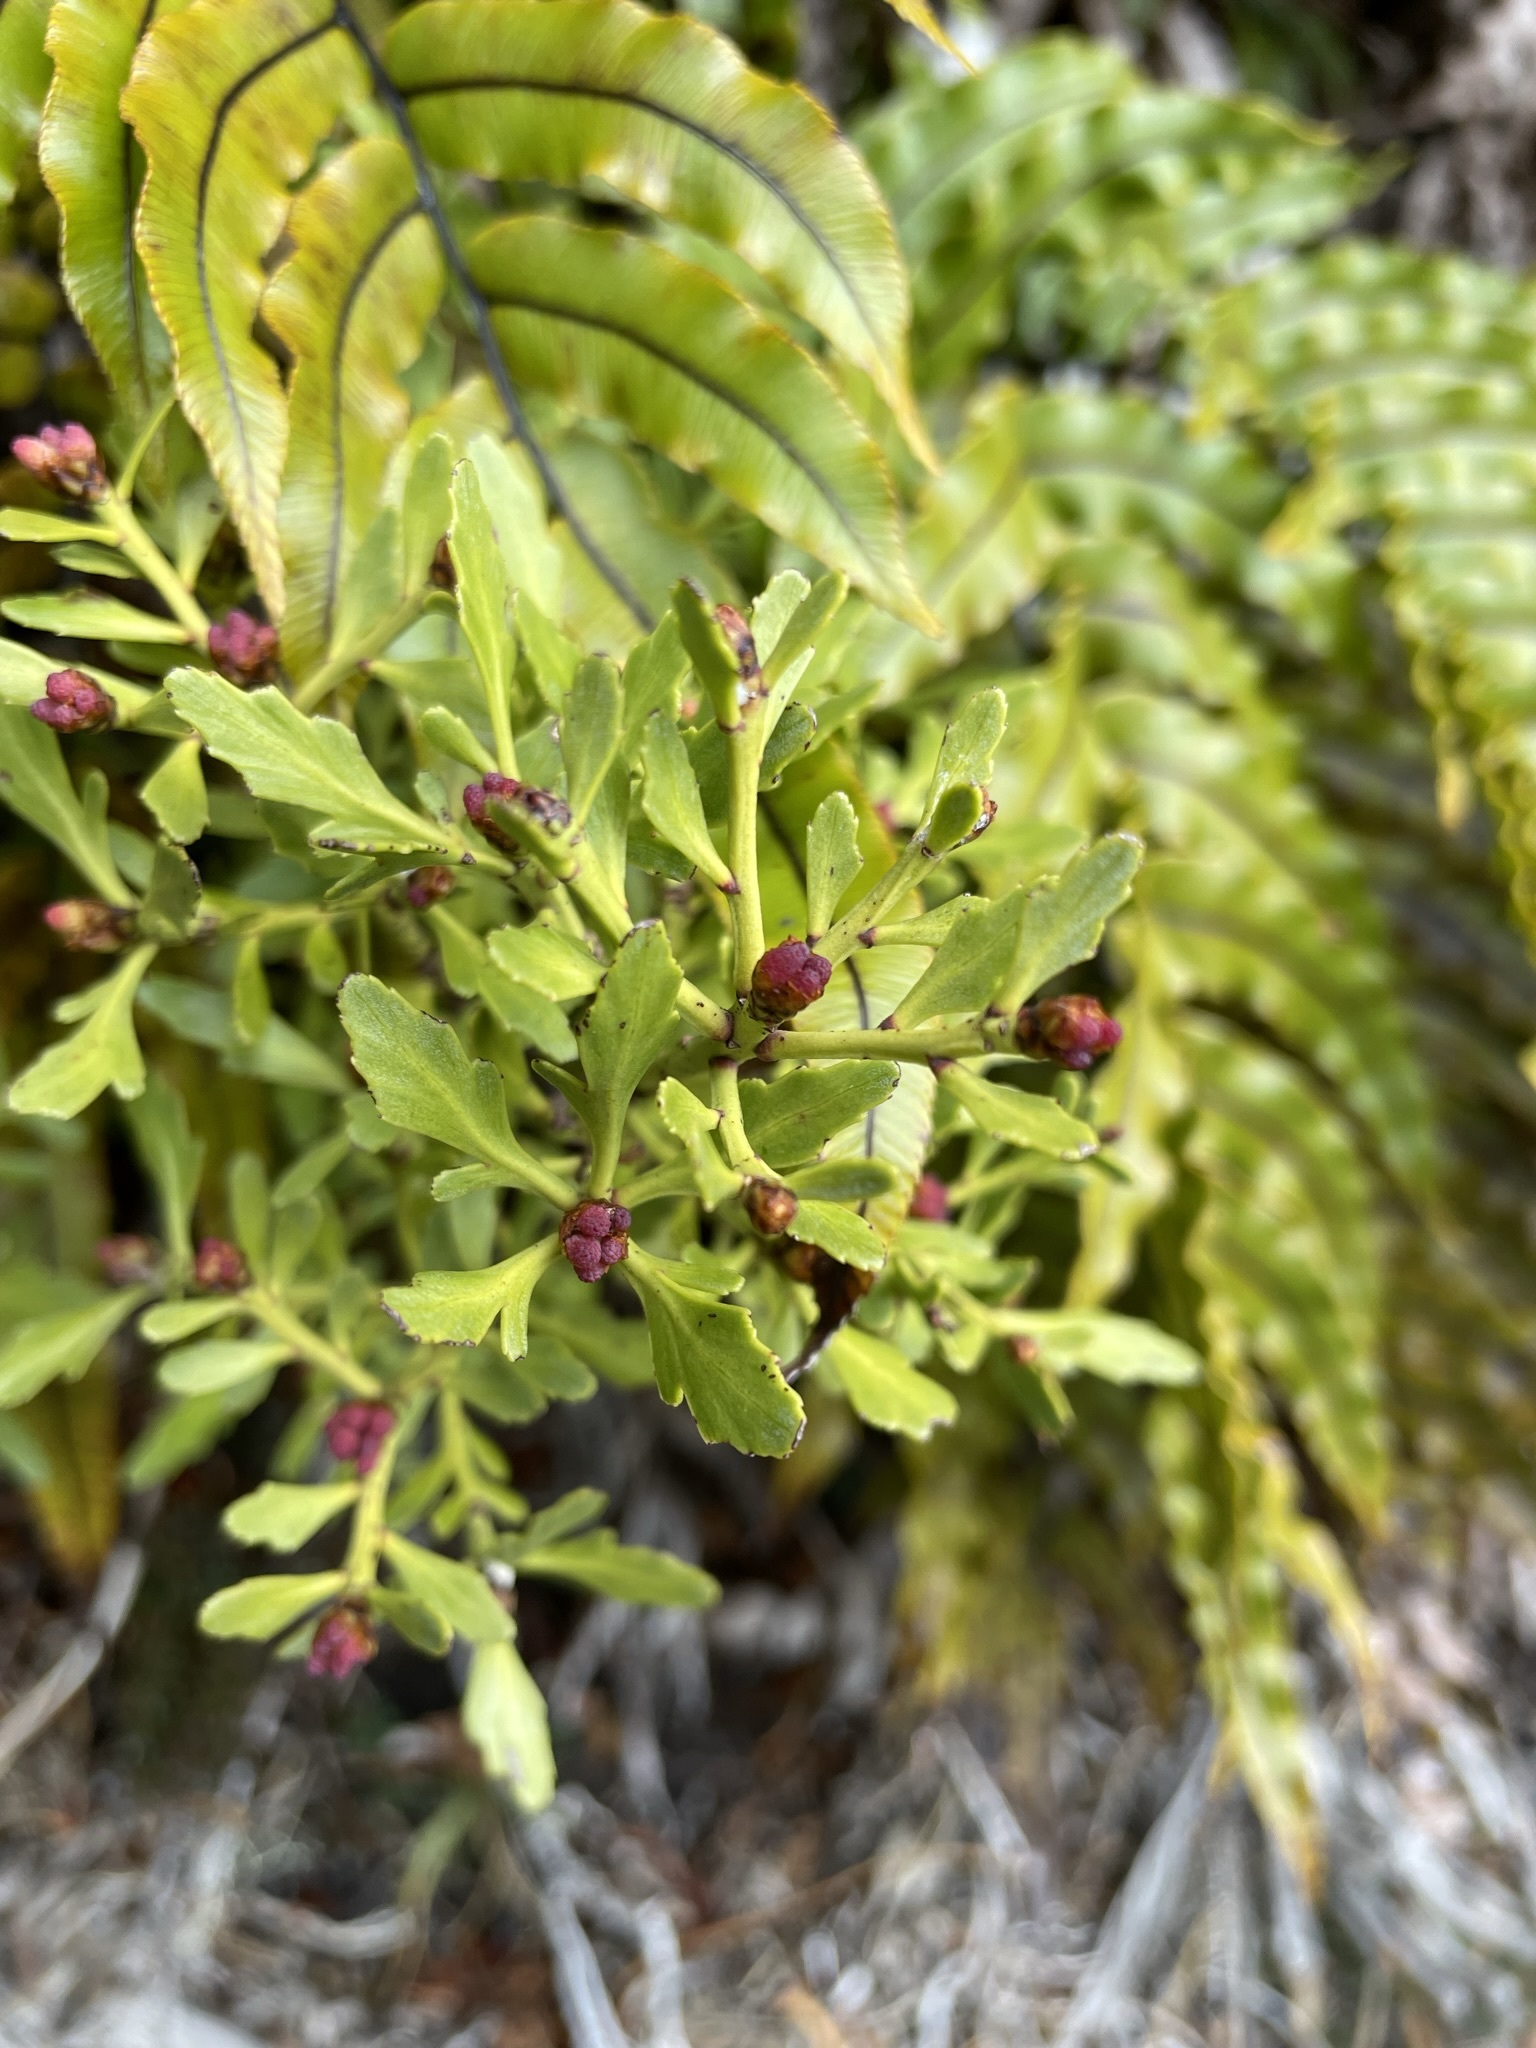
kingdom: Plantae
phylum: Tracheophyta
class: Pinopsida
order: Pinales
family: Phyllocladaceae
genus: Phyllocladus
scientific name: Phyllocladus trichomanoides
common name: Celery pine
